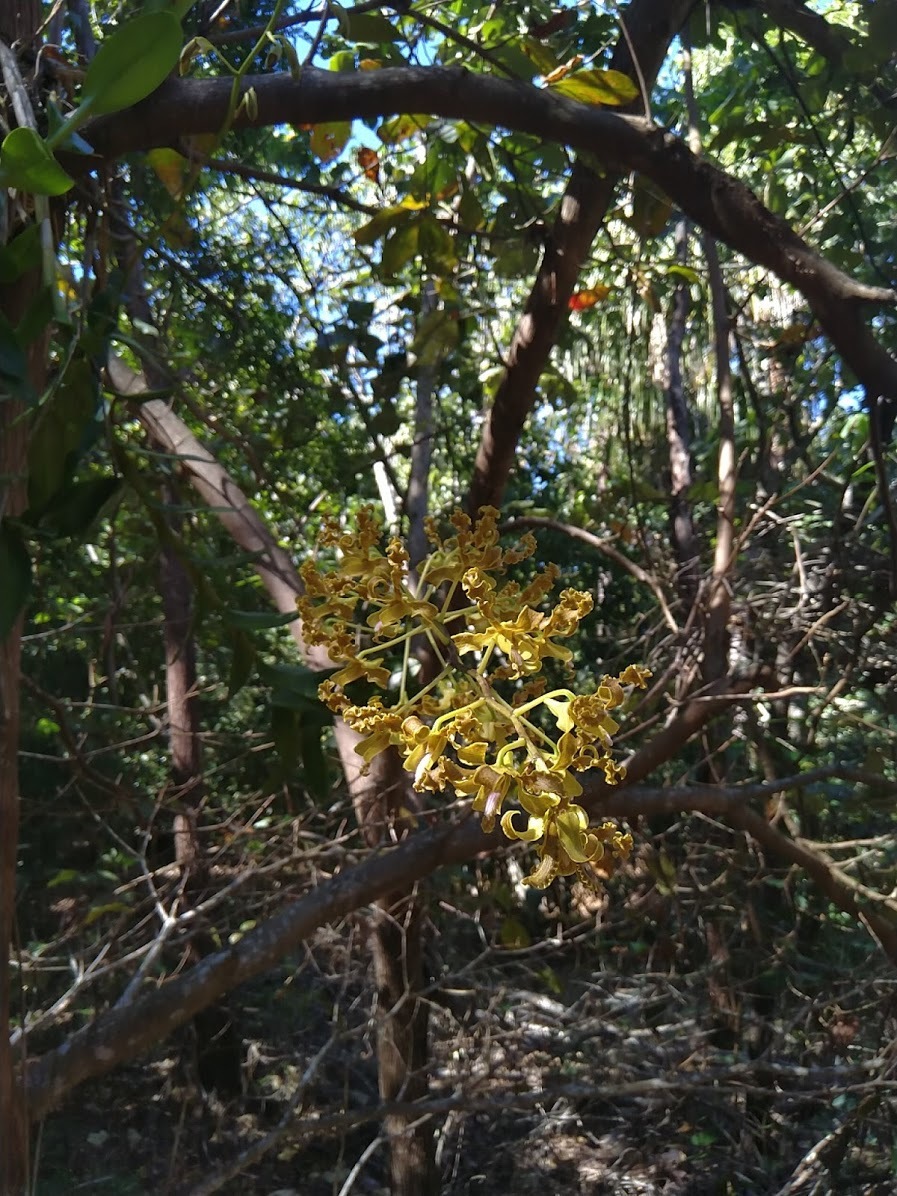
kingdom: Plantae
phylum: Tracheophyta
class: Liliopsida
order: Asparagales
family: Orchidaceae
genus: Dendrobium
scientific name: Dendrobium discolor
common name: Golden antler orchid
